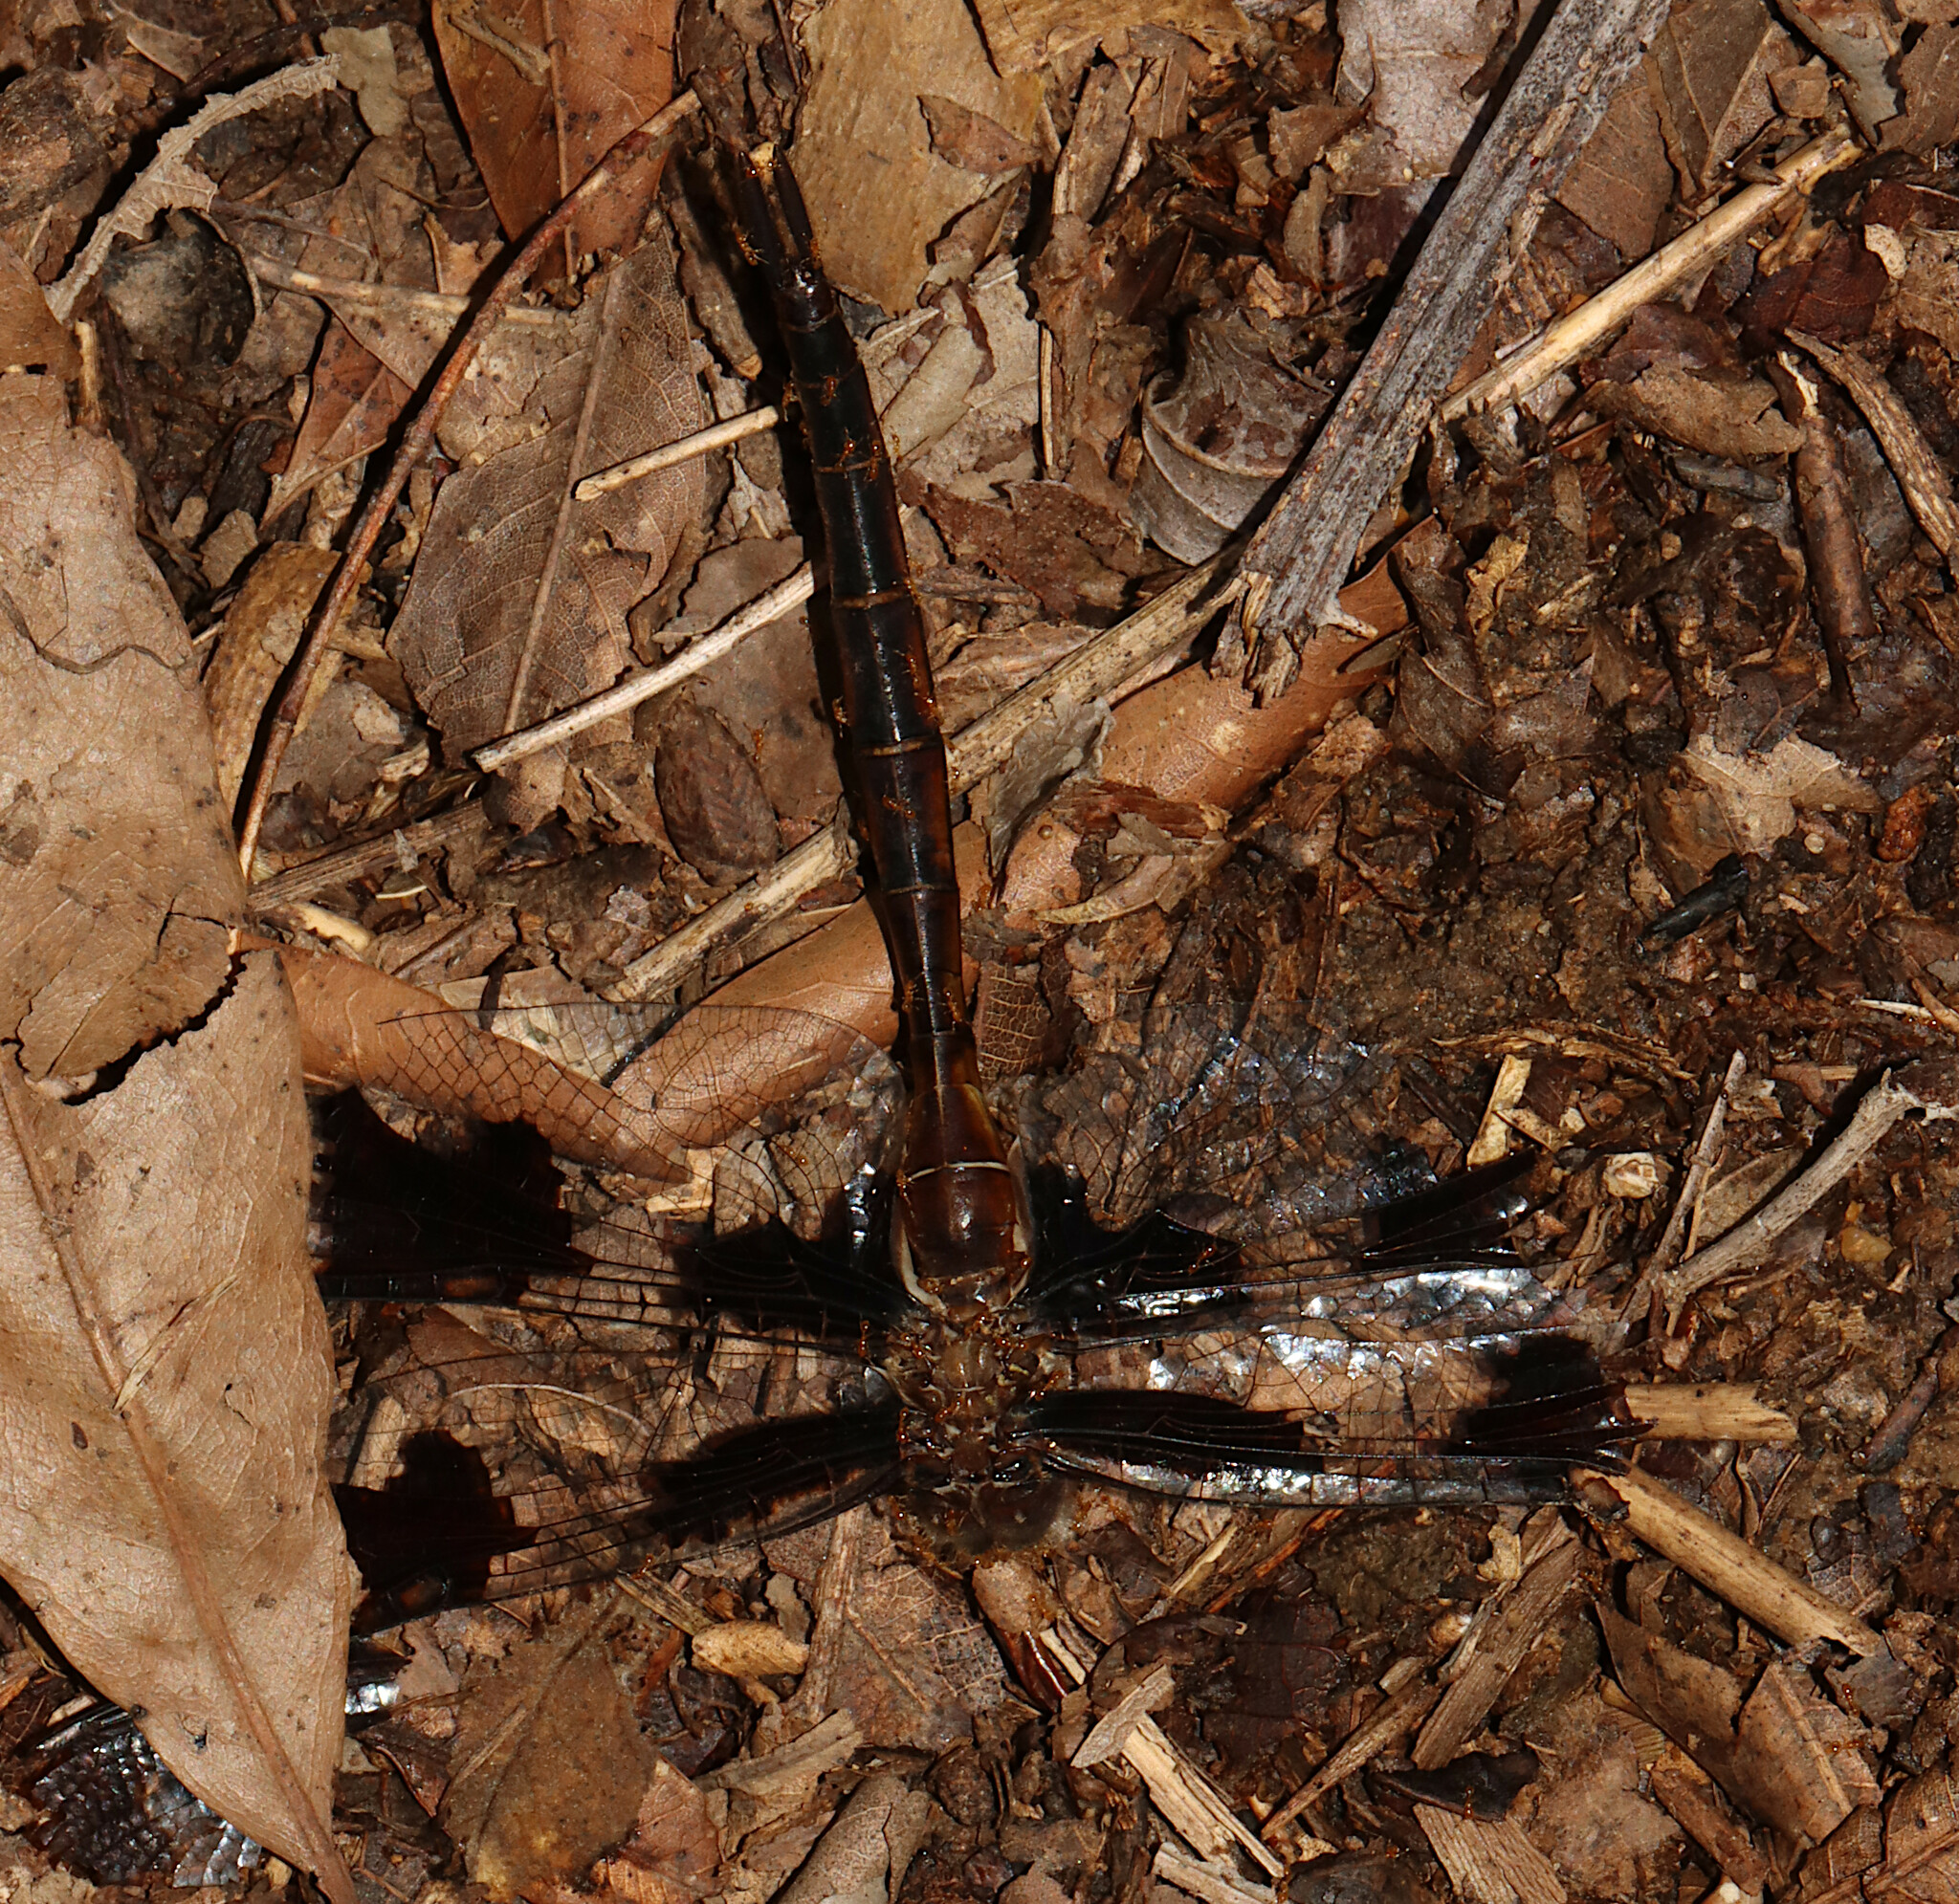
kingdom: Animalia
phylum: Arthropoda
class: Insecta
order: Odonata
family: Corduliidae
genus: Epitheca
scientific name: Epitheca princeps
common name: Prince baskettail
